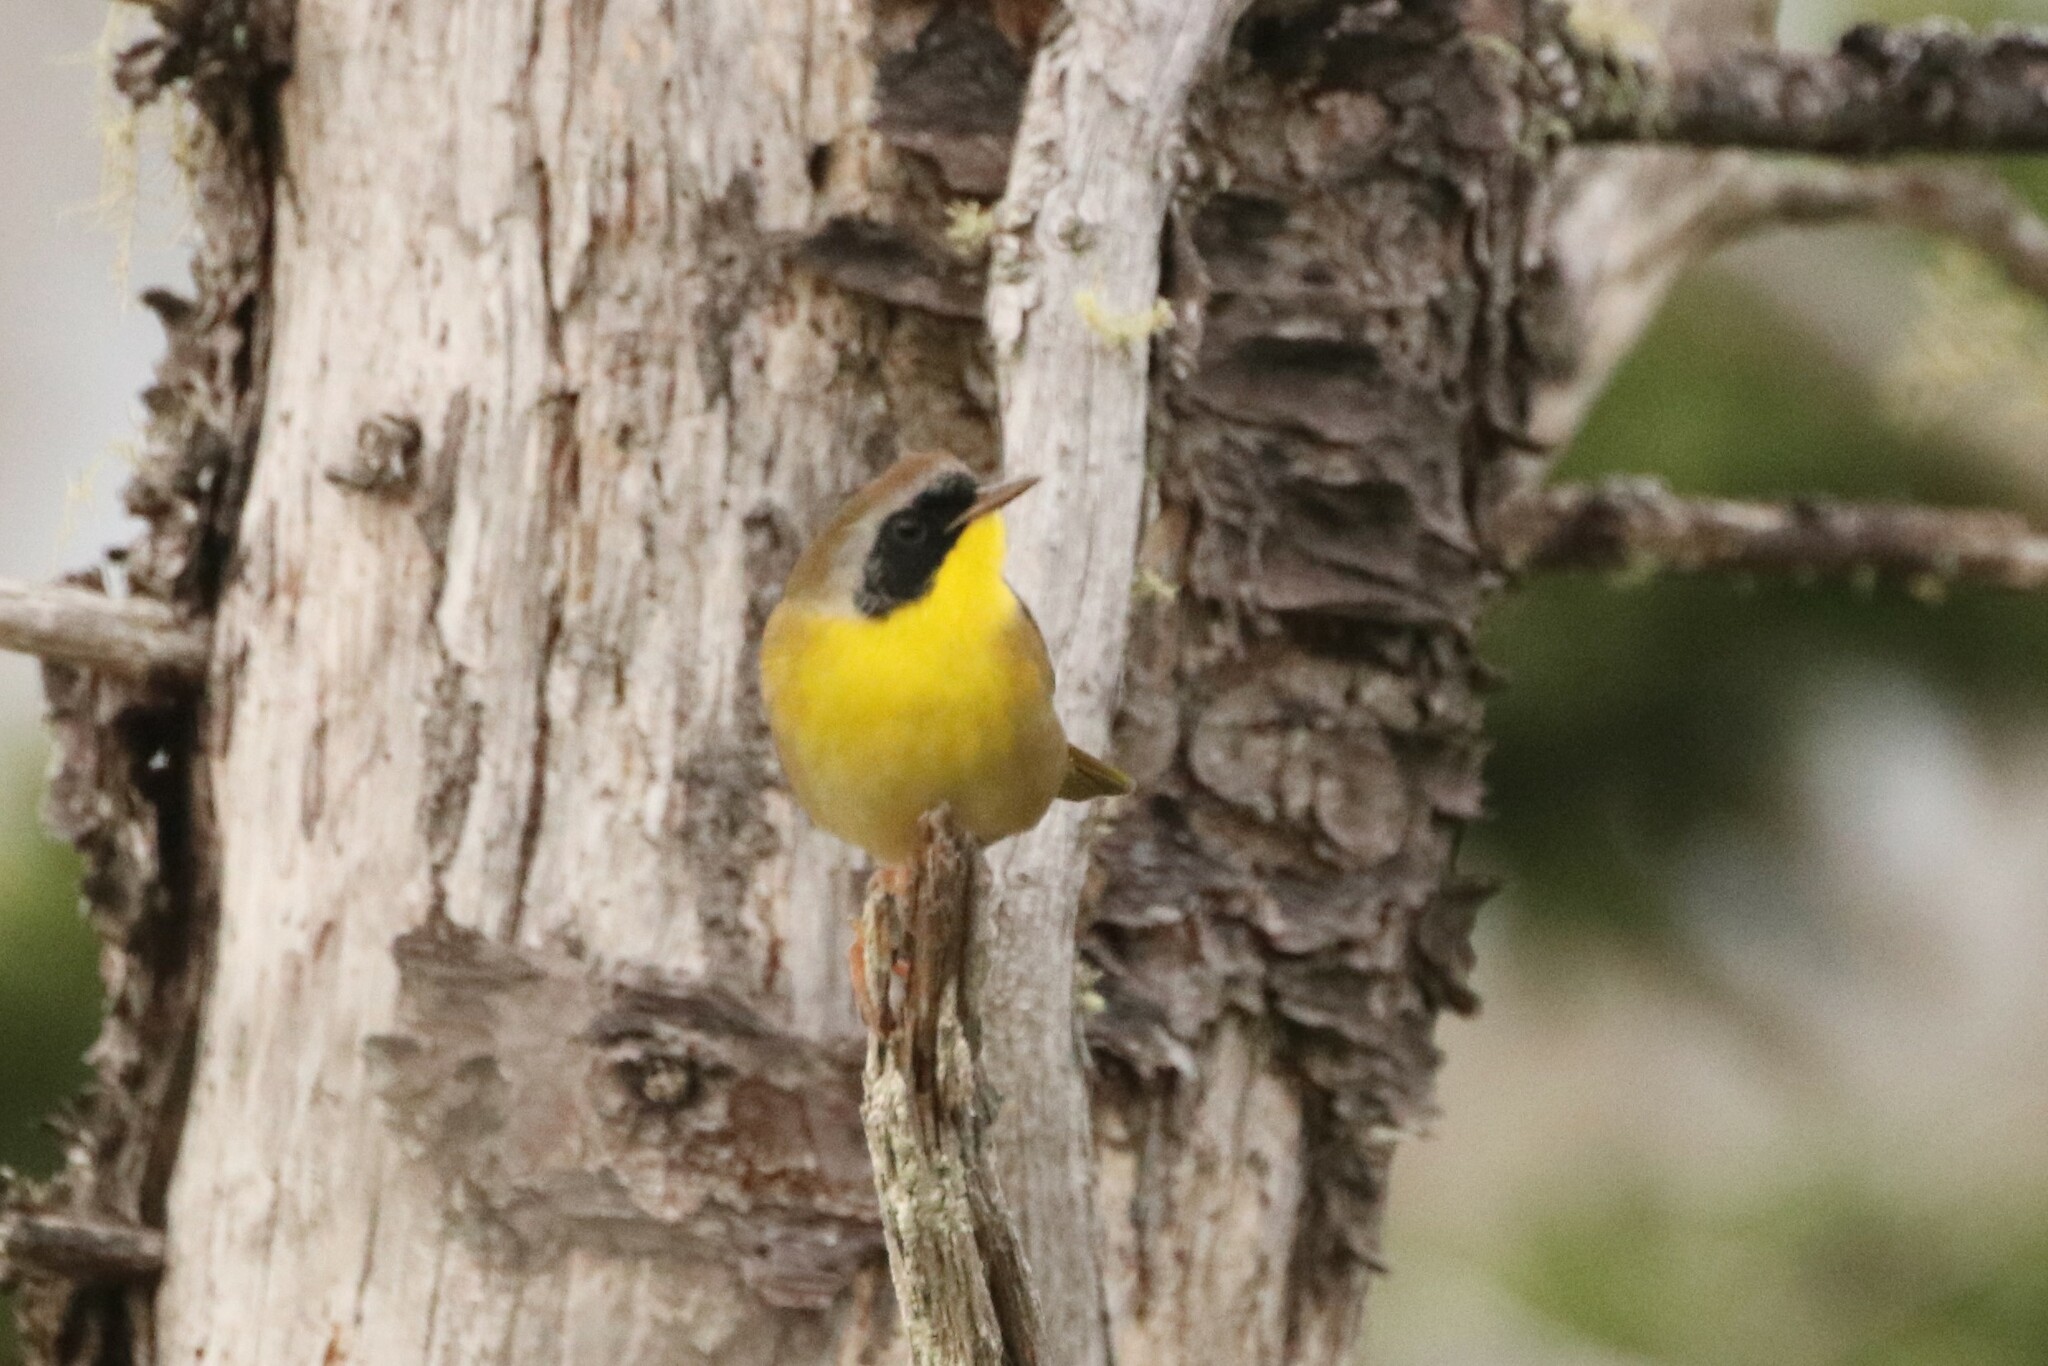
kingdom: Animalia
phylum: Chordata
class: Aves
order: Passeriformes
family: Parulidae
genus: Geothlypis
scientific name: Geothlypis trichas
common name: Common yellowthroat
